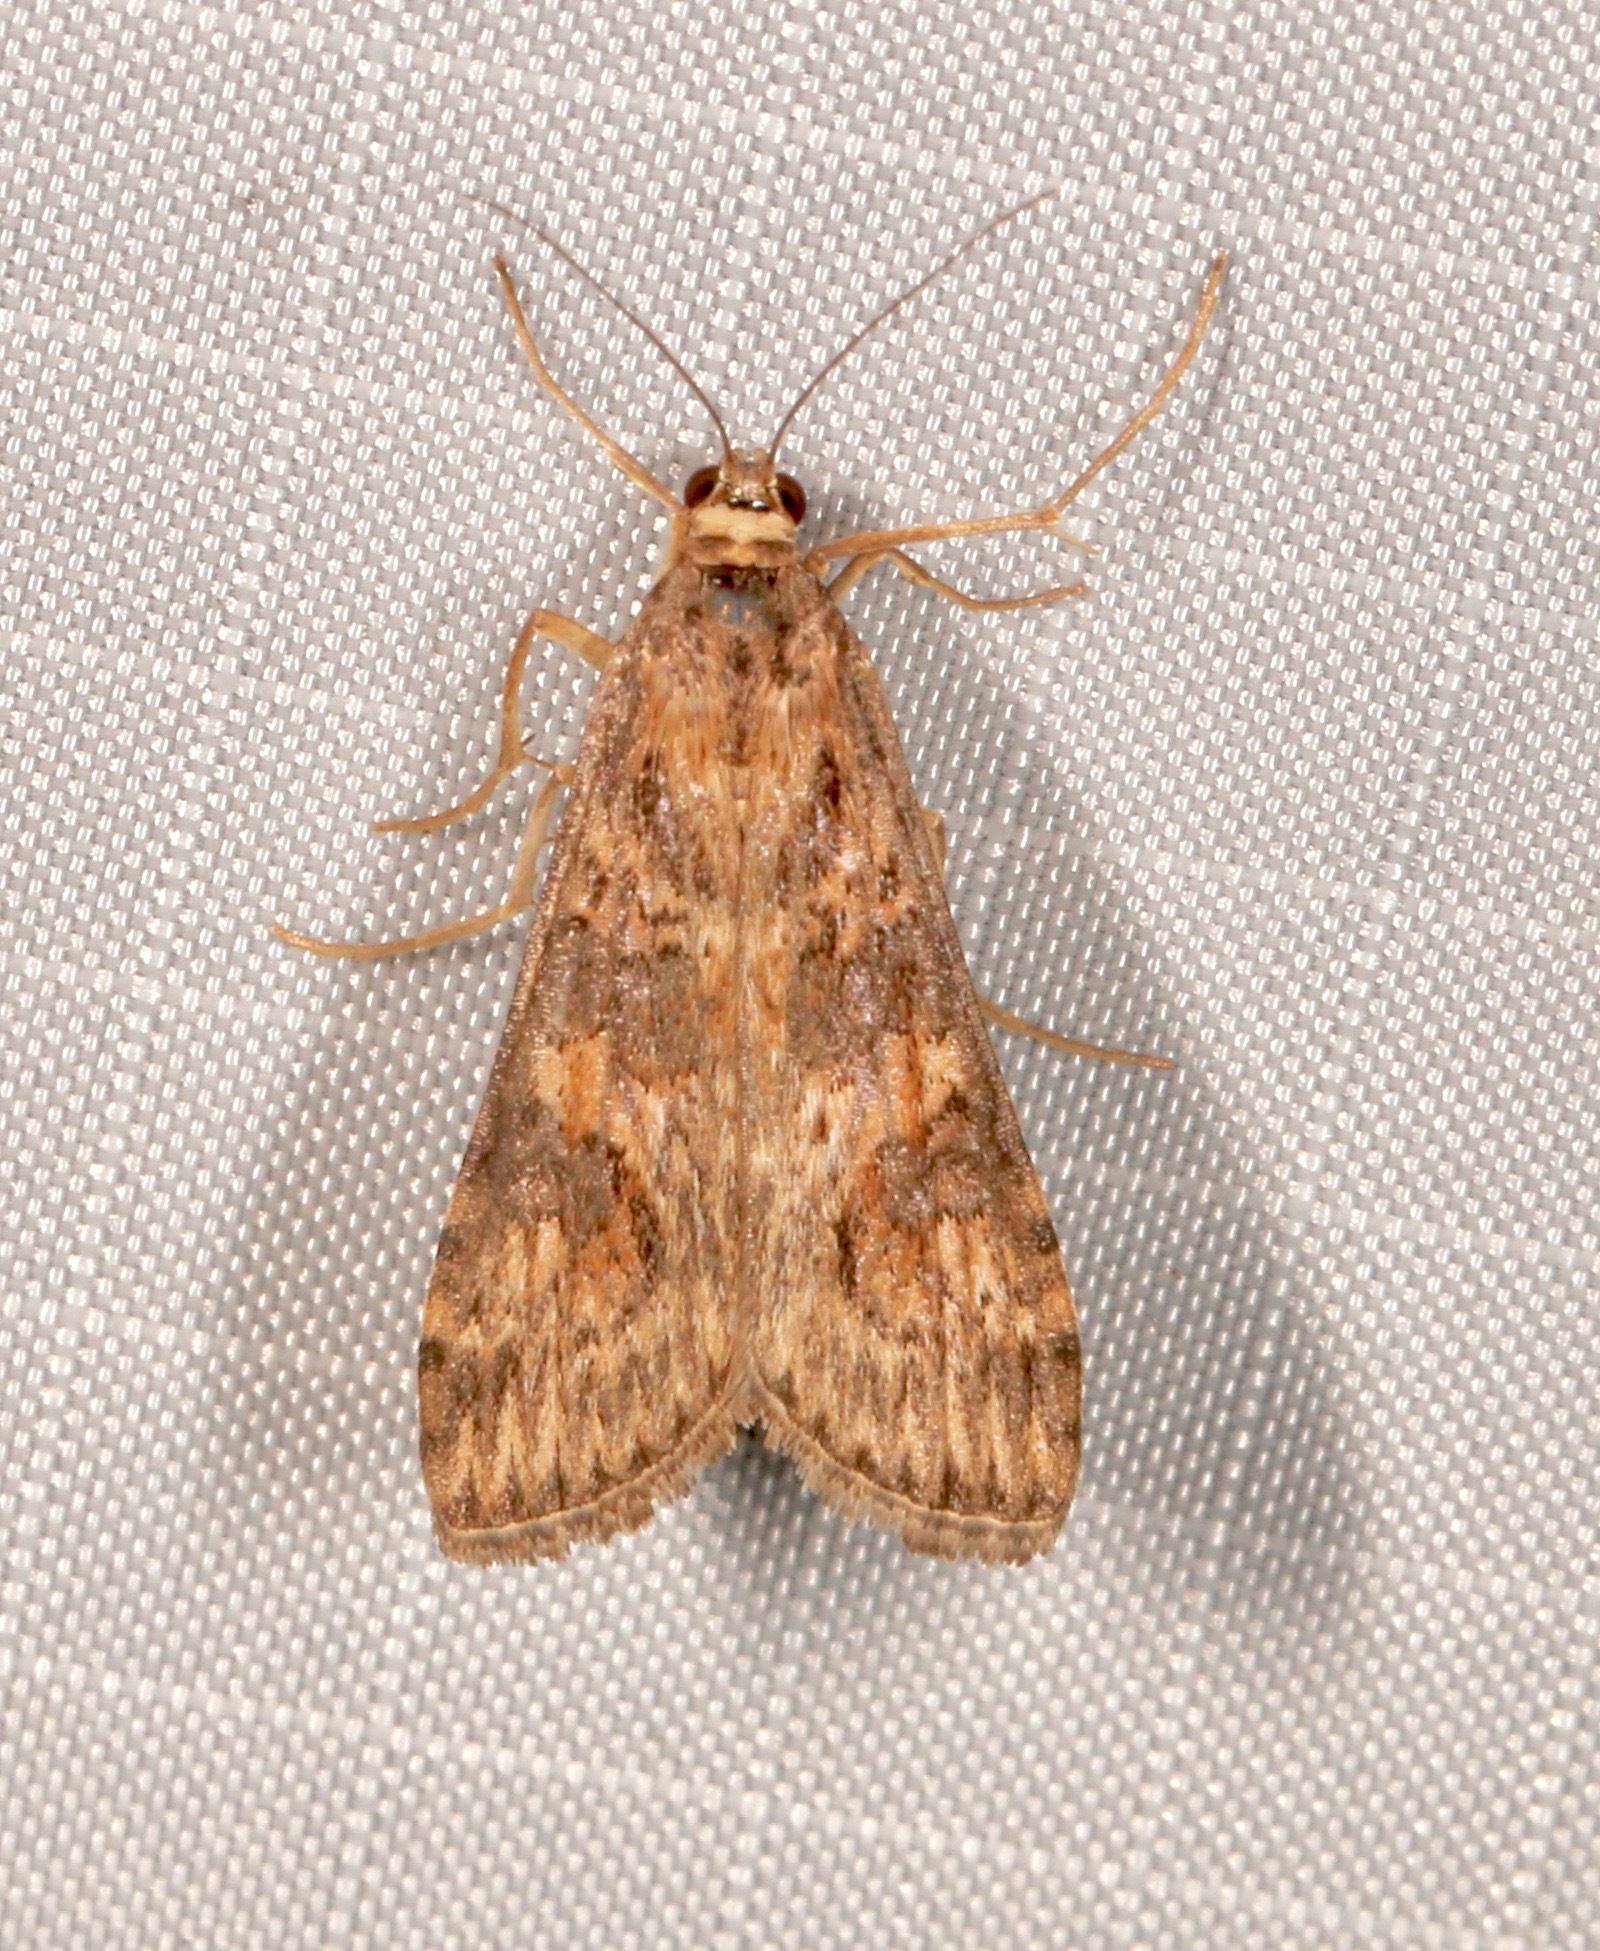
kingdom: Animalia
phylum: Arthropoda
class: Insecta
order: Lepidoptera
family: Crambidae
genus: Nomophila
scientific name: Nomophila nearctica
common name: American rush veneer
